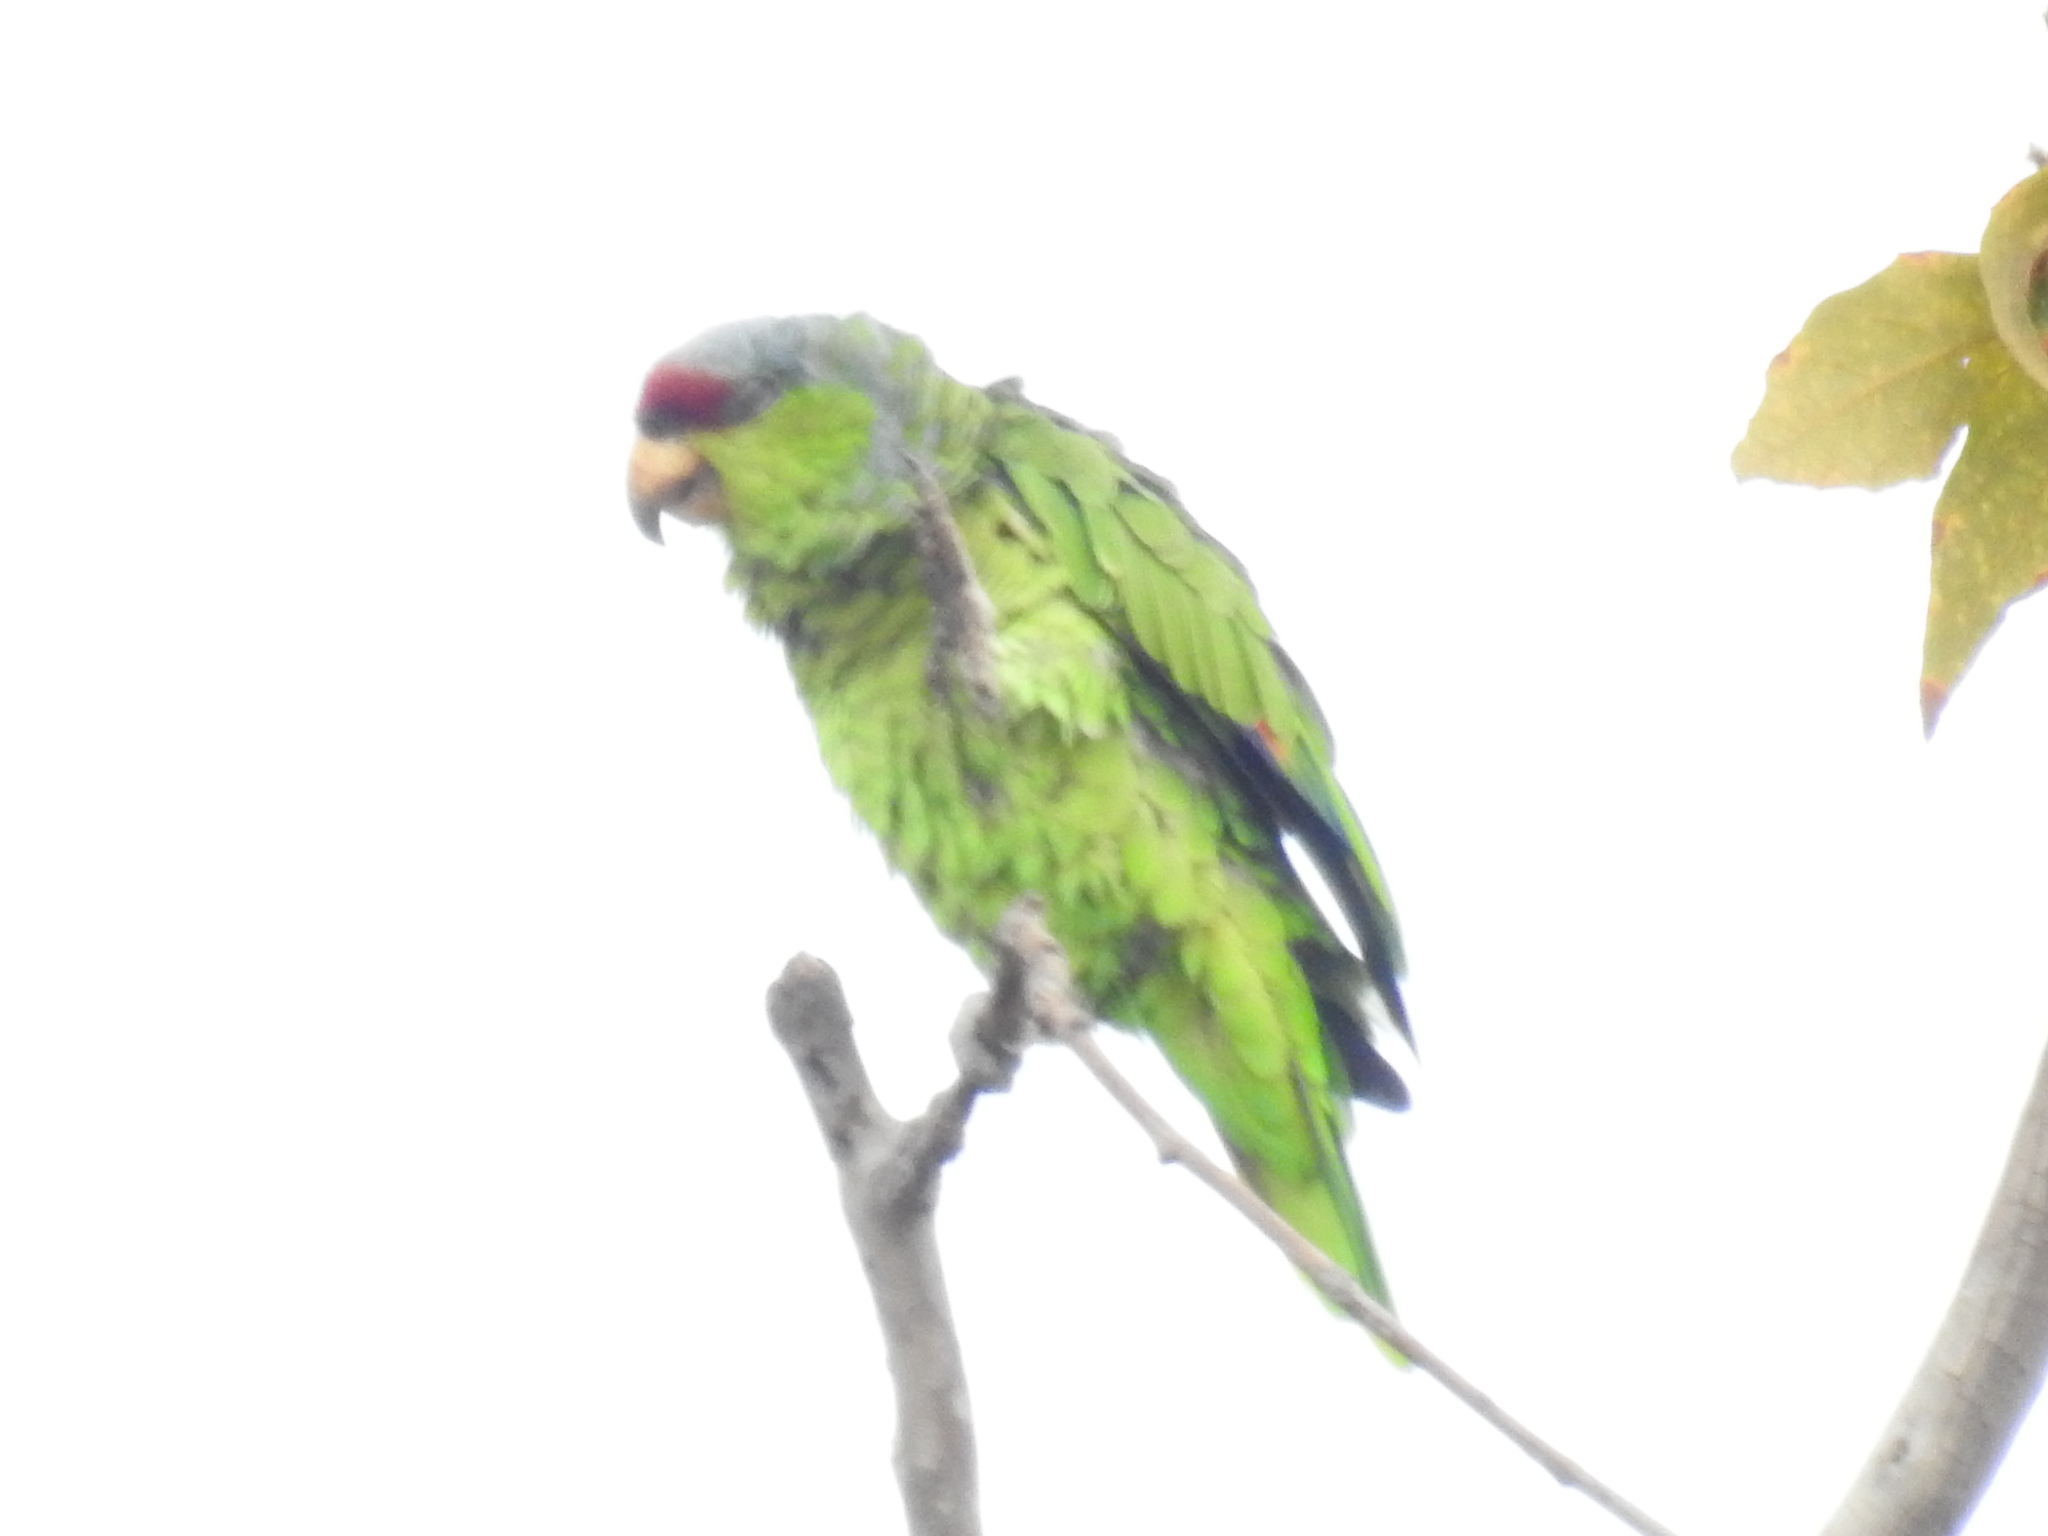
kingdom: Animalia
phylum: Chordata
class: Aves
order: Psittaciformes
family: Psittacidae
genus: Amazona
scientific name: Amazona finschi
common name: Lilac-crowned amazon
